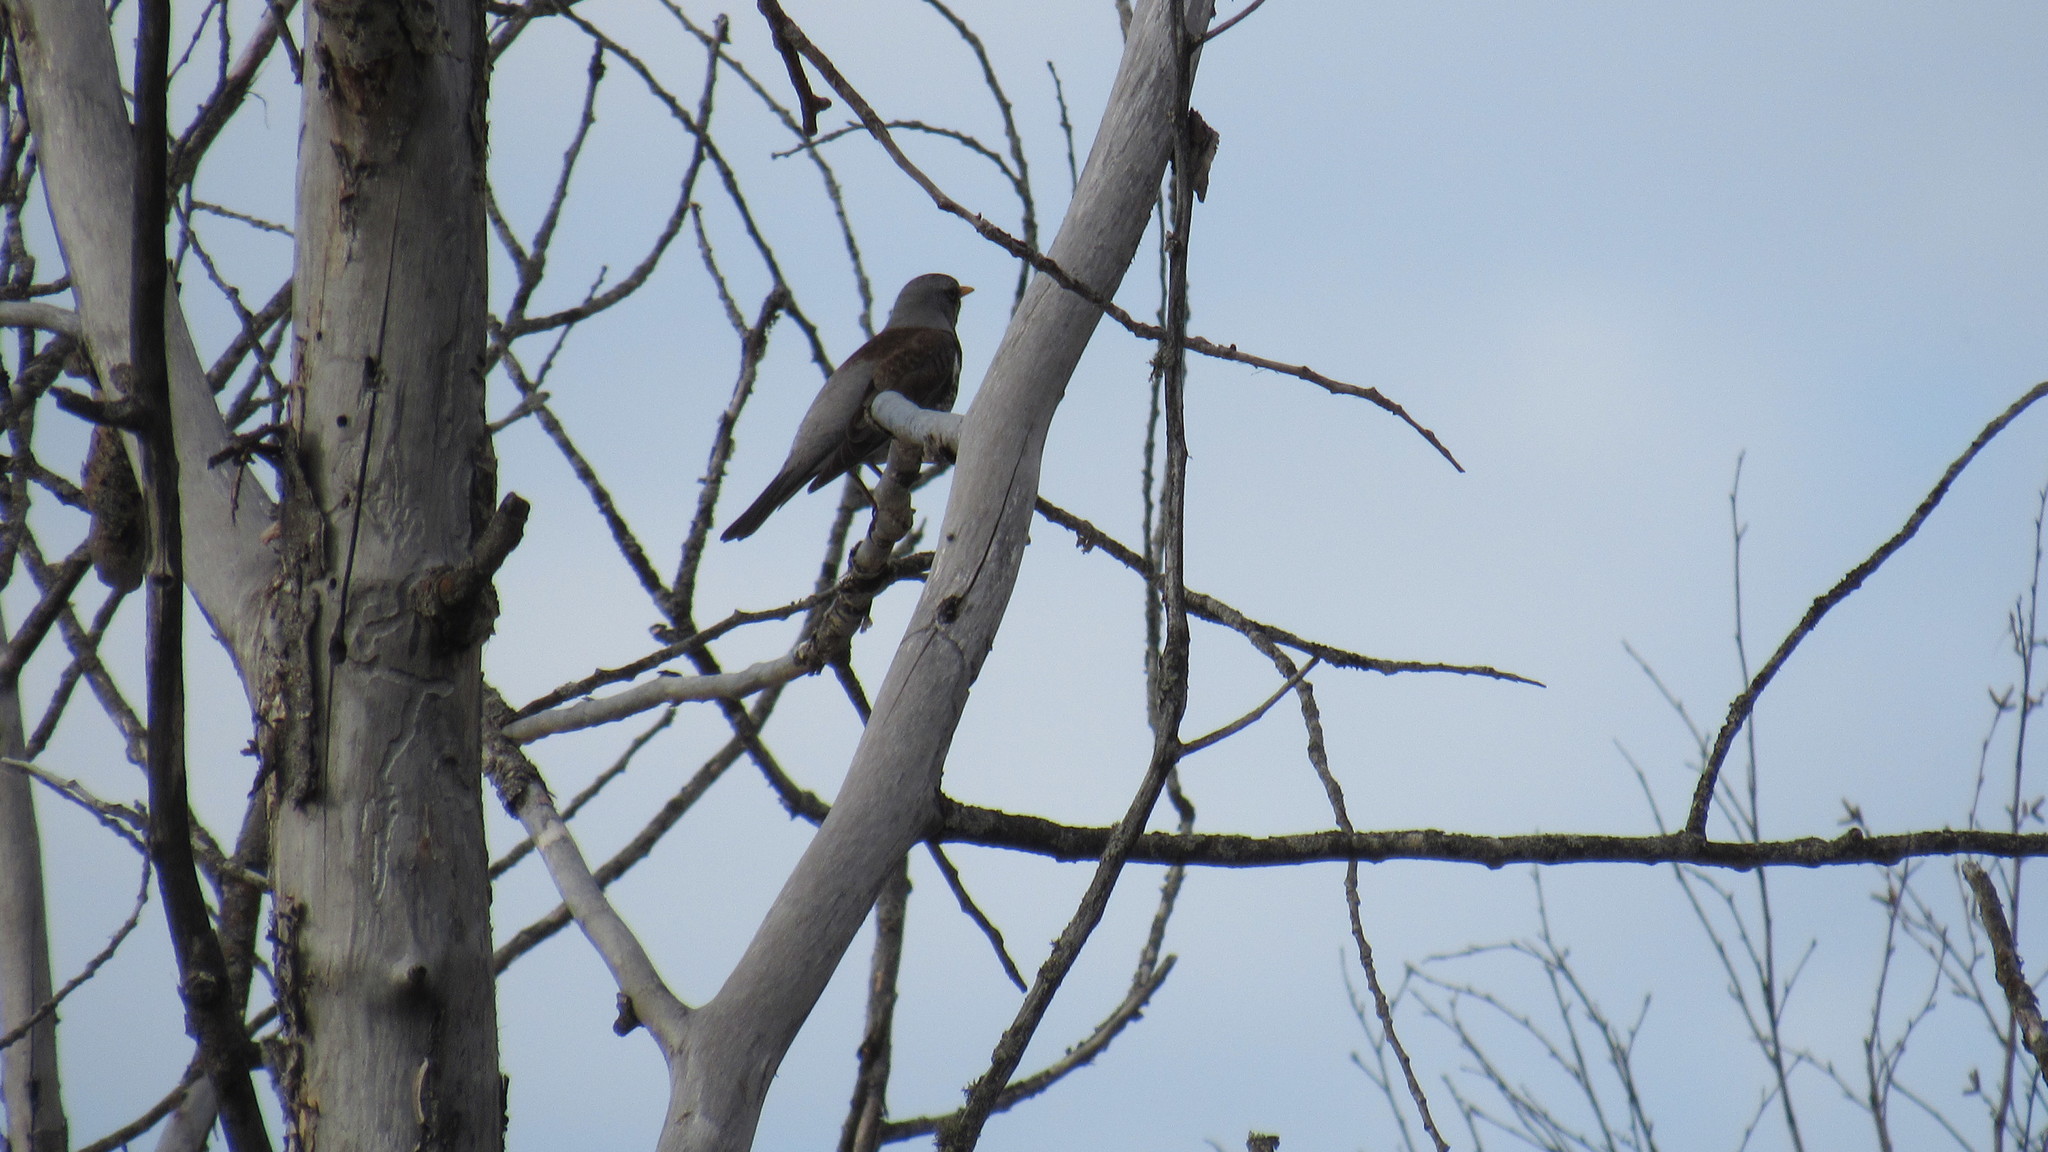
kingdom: Animalia
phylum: Chordata
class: Aves
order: Passeriformes
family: Turdidae
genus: Turdus
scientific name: Turdus pilaris
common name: Fieldfare
